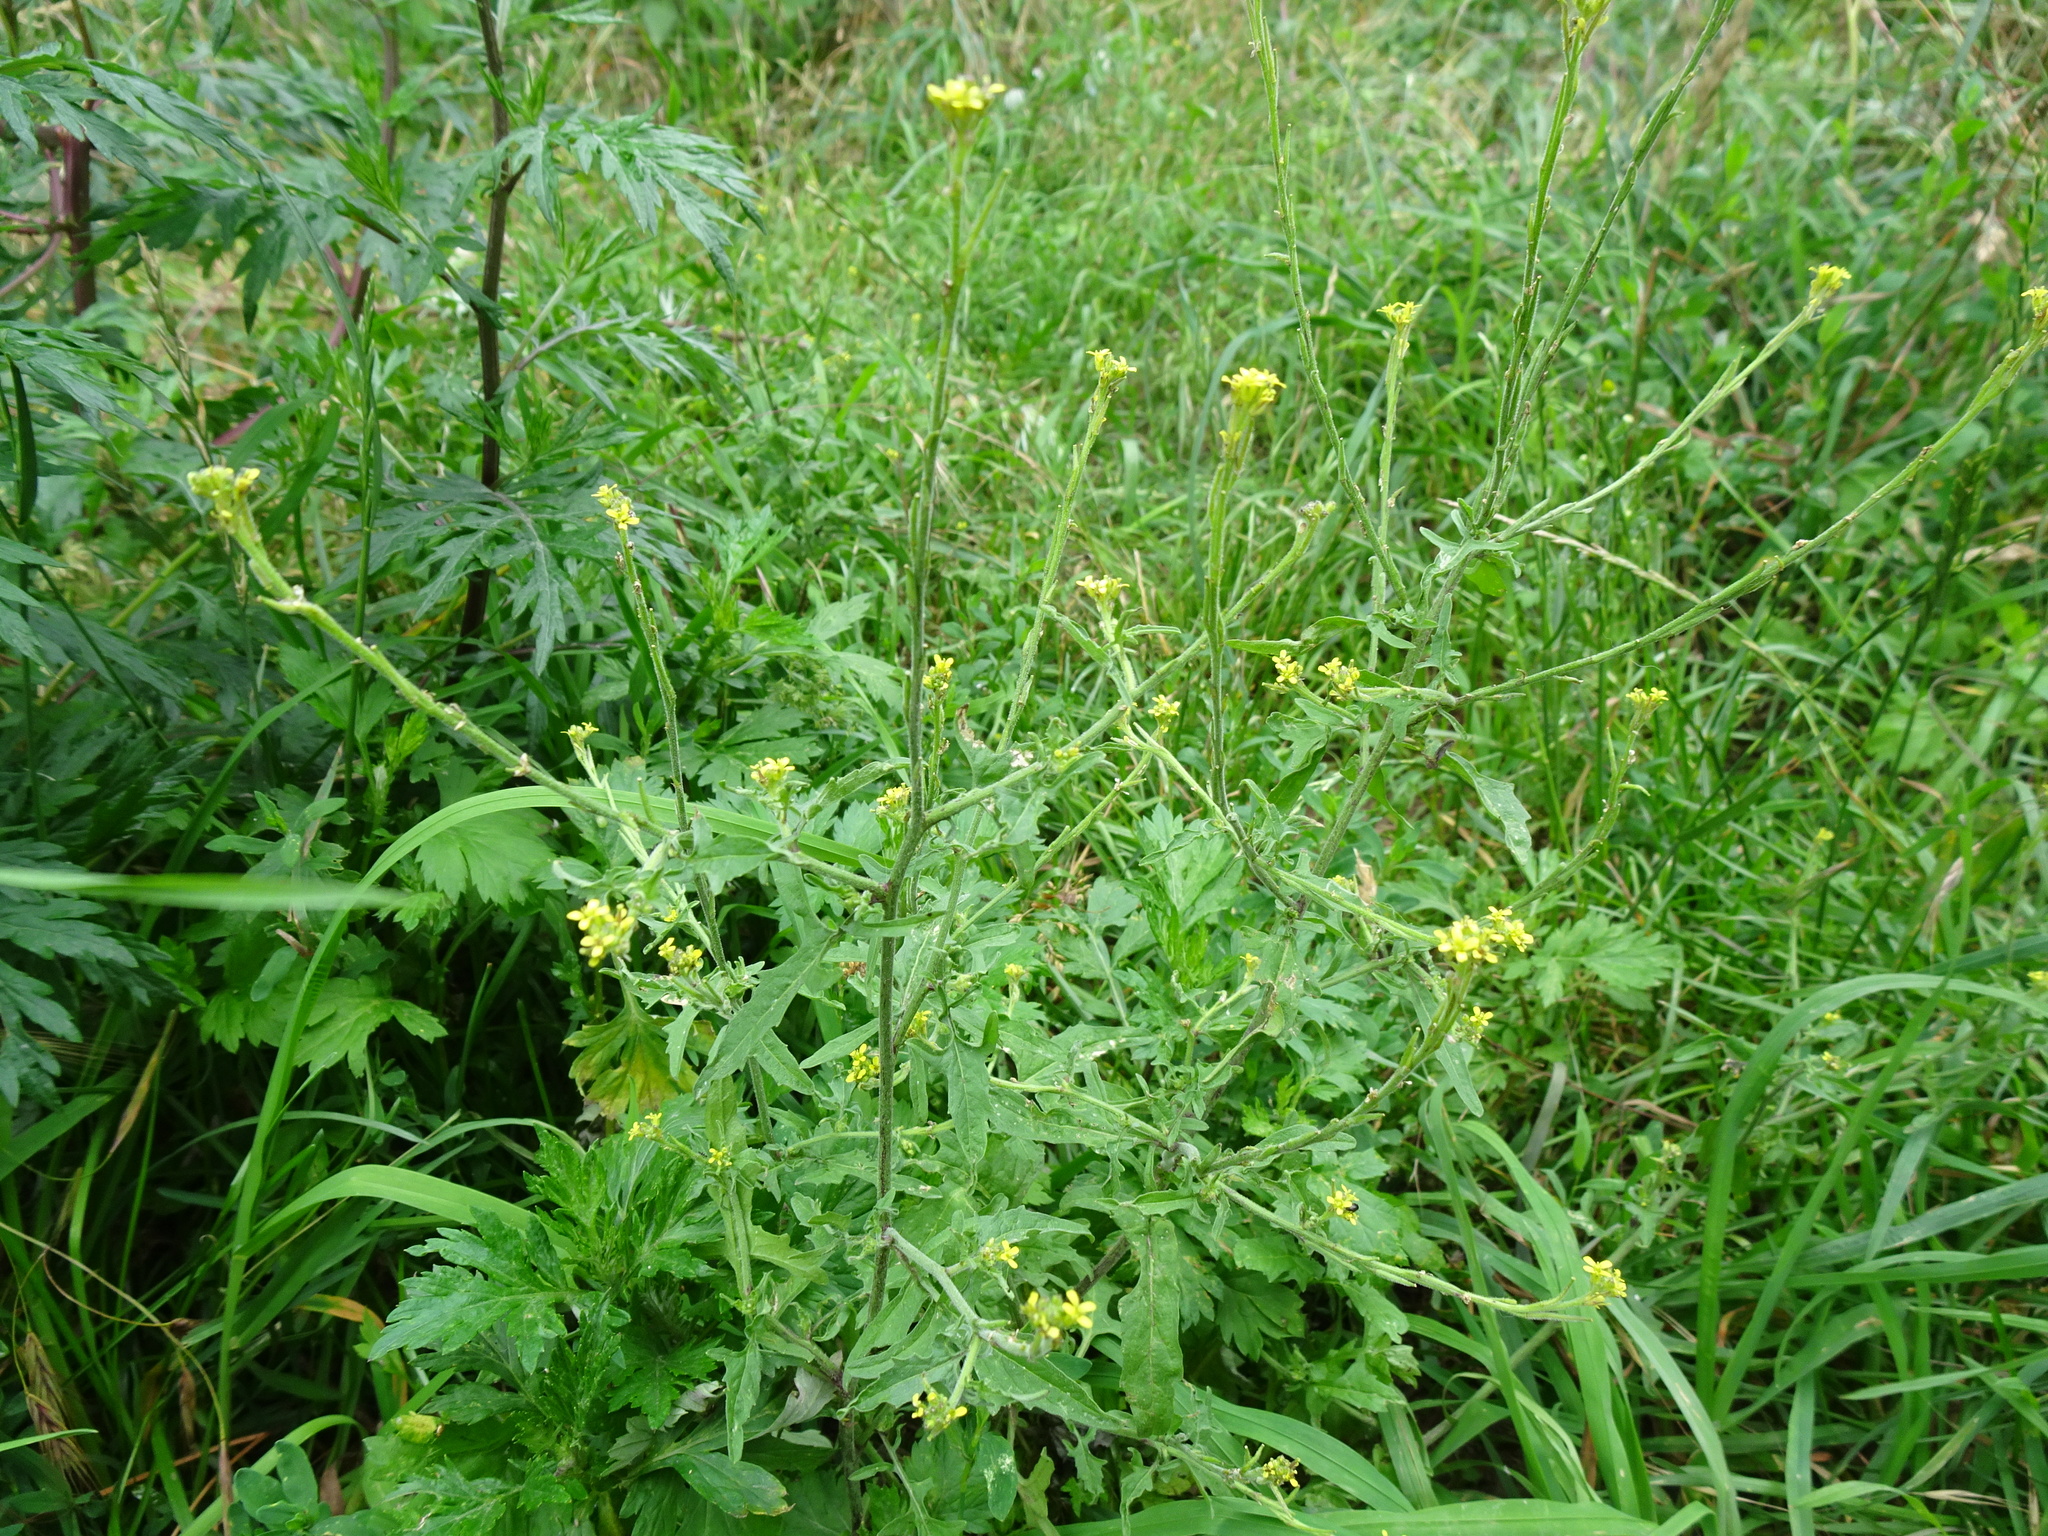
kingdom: Plantae
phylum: Tracheophyta
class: Magnoliopsida
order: Brassicales
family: Brassicaceae
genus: Sisymbrium
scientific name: Sisymbrium officinale
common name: Hedge mustard
